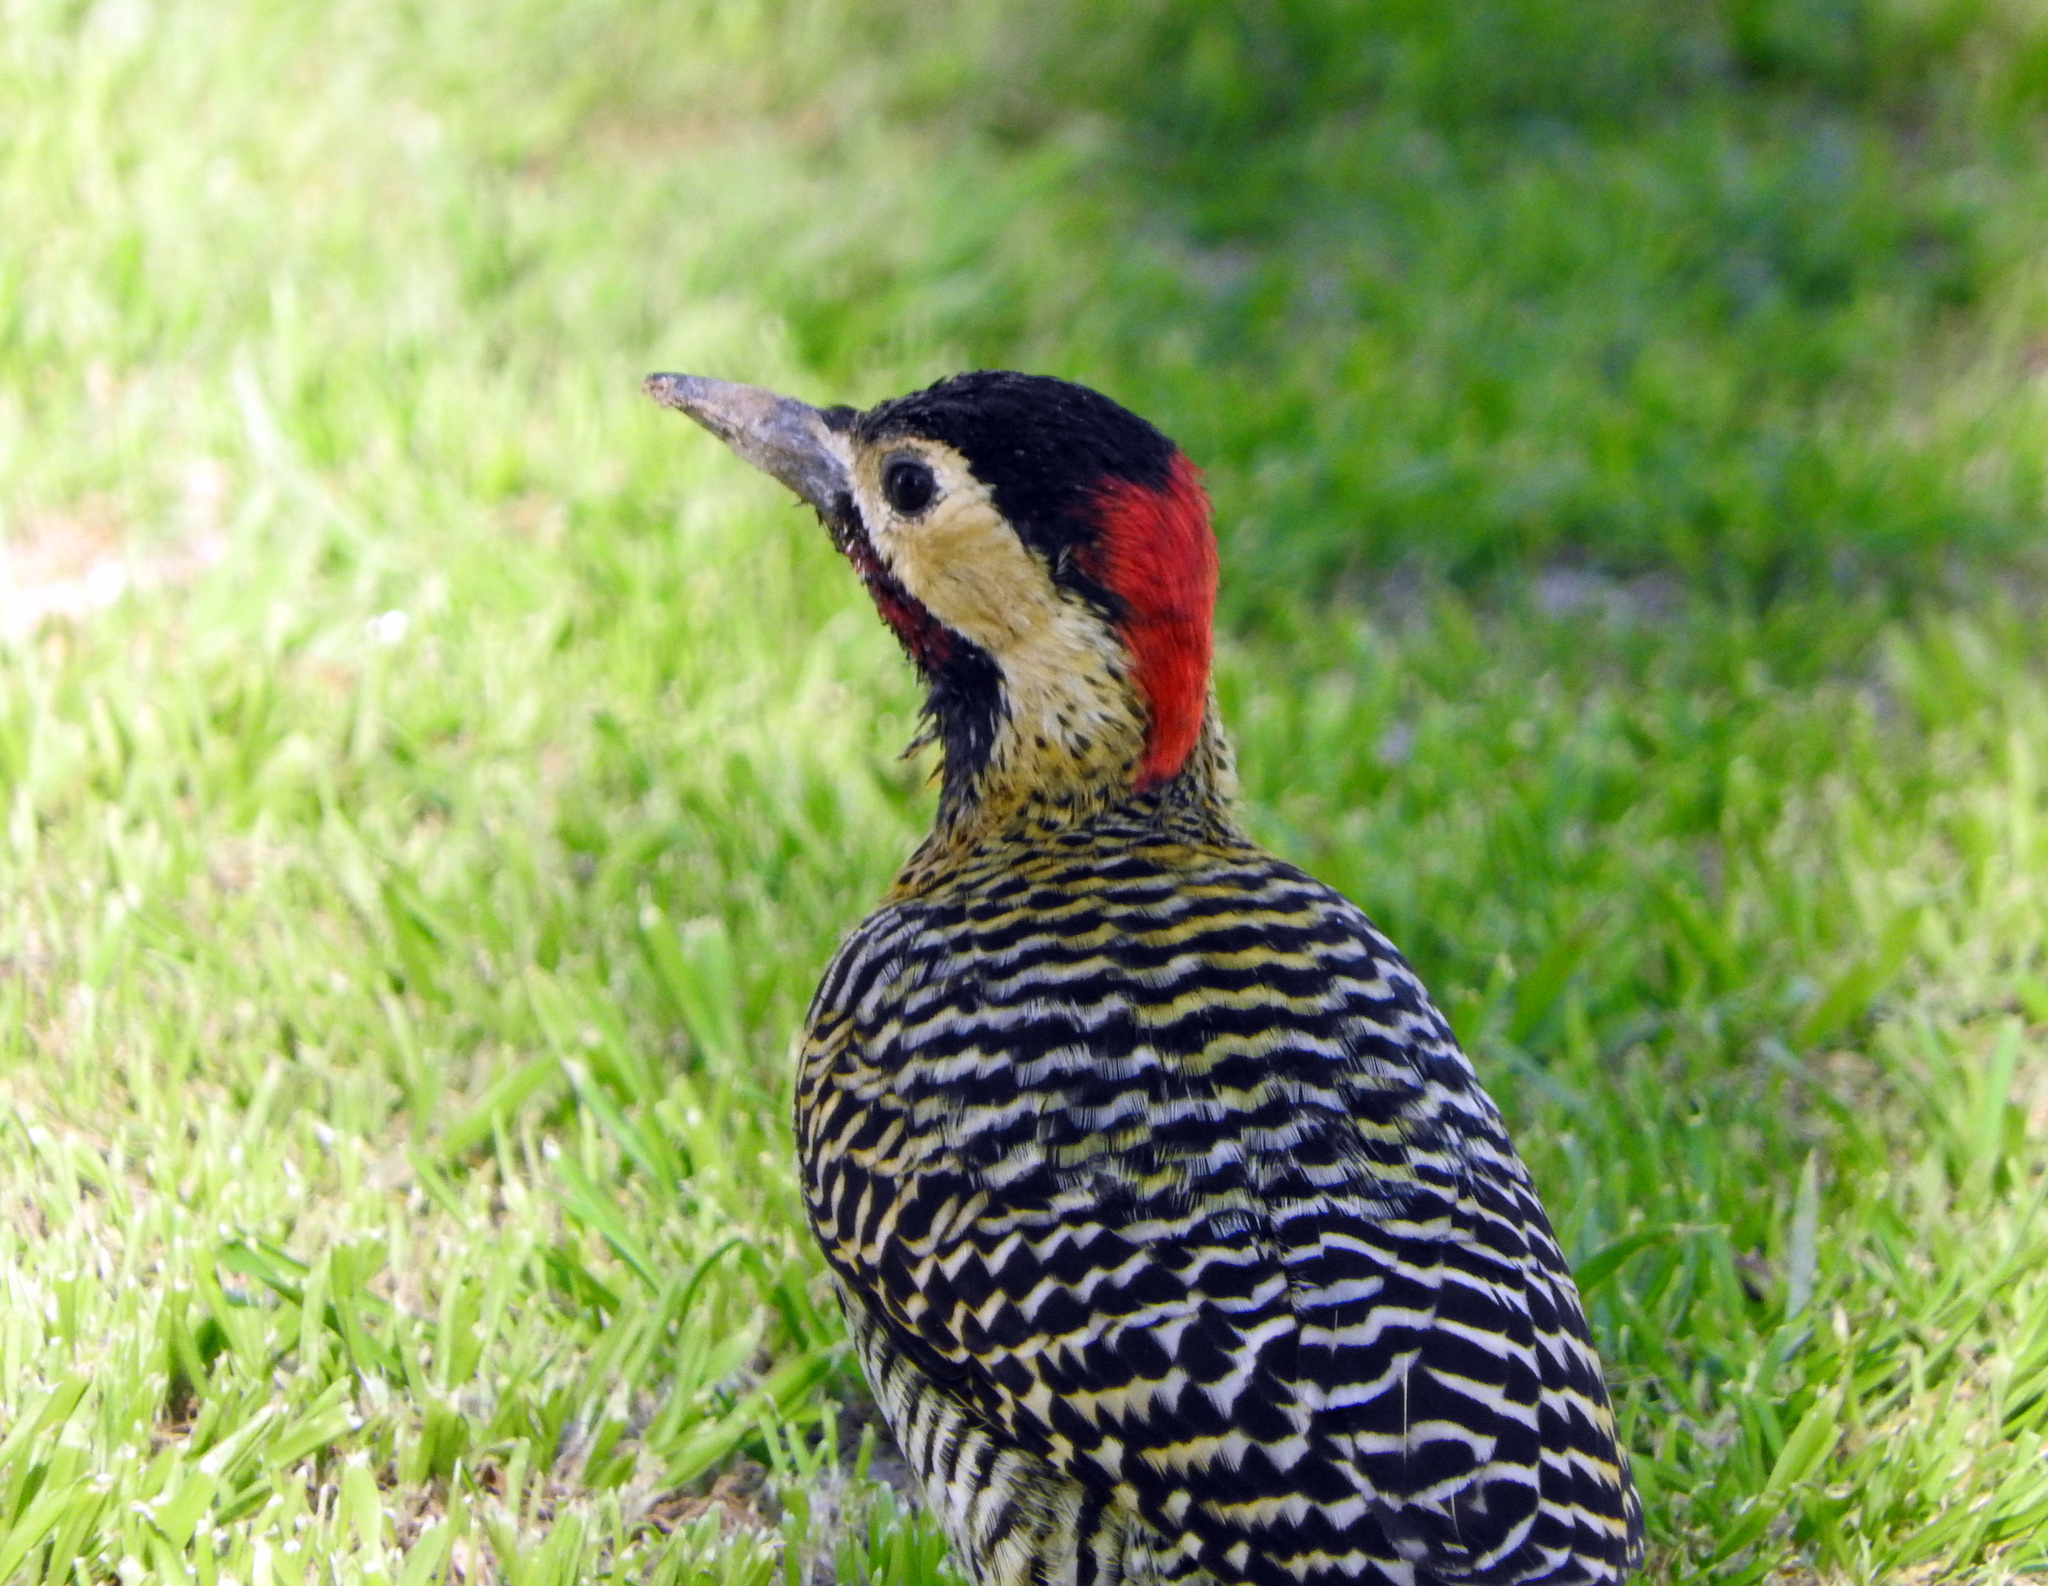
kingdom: Animalia
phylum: Chordata
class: Aves
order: Piciformes
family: Picidae
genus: Colaptes
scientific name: Colaptes melanochloros
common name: Green-barred woodpecker
